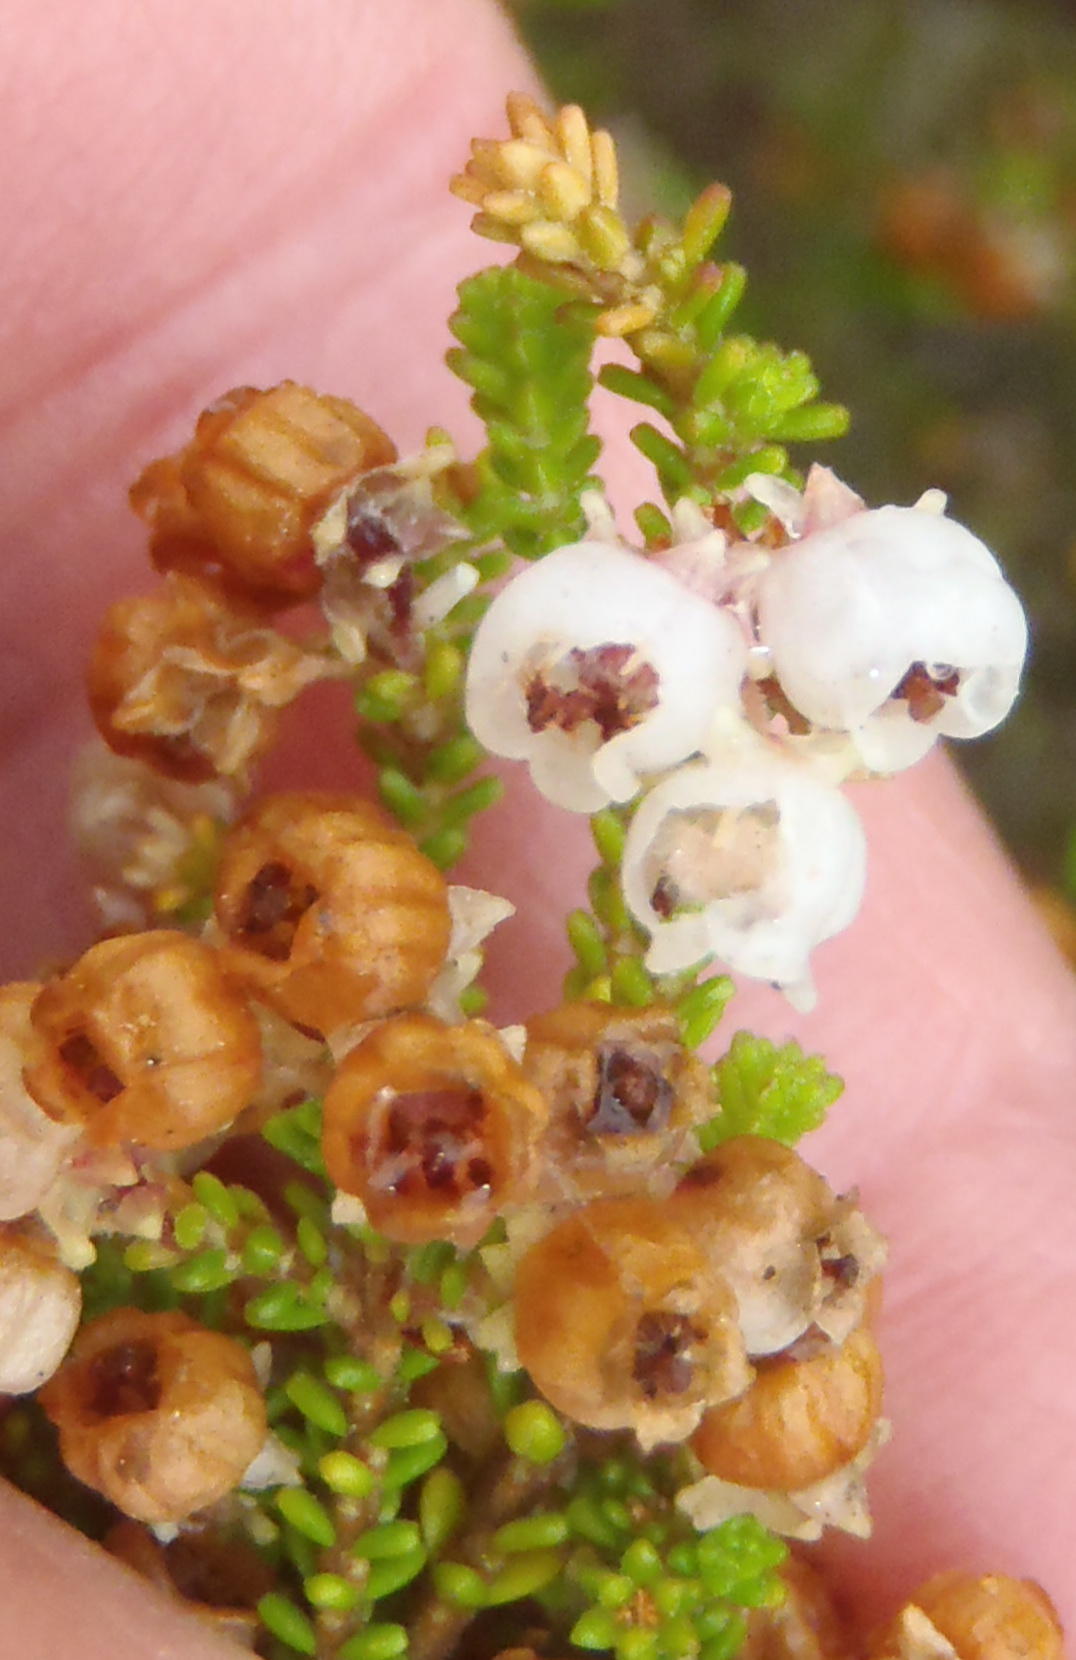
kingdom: Plantae
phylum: Tracheophyta
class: Magnoliopsida
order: Ericales
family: Ericaceae
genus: Erica
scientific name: Erica formosa
